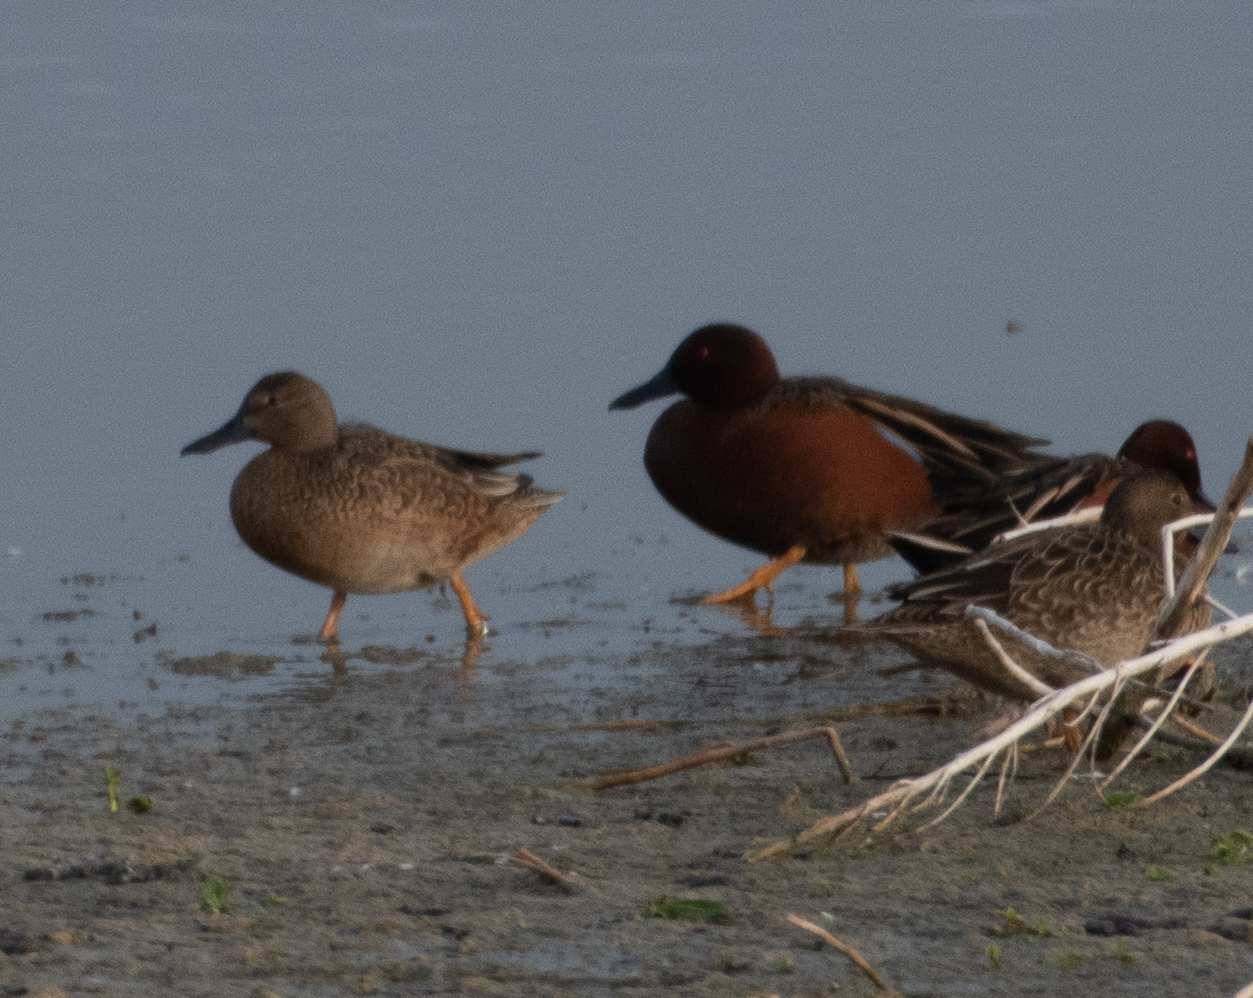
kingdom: Animalia
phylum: Chordata
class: Aves
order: Anseriformes
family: Anatidae
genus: Spatula
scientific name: Spatula cyanoptera
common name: Cinnamon teal
